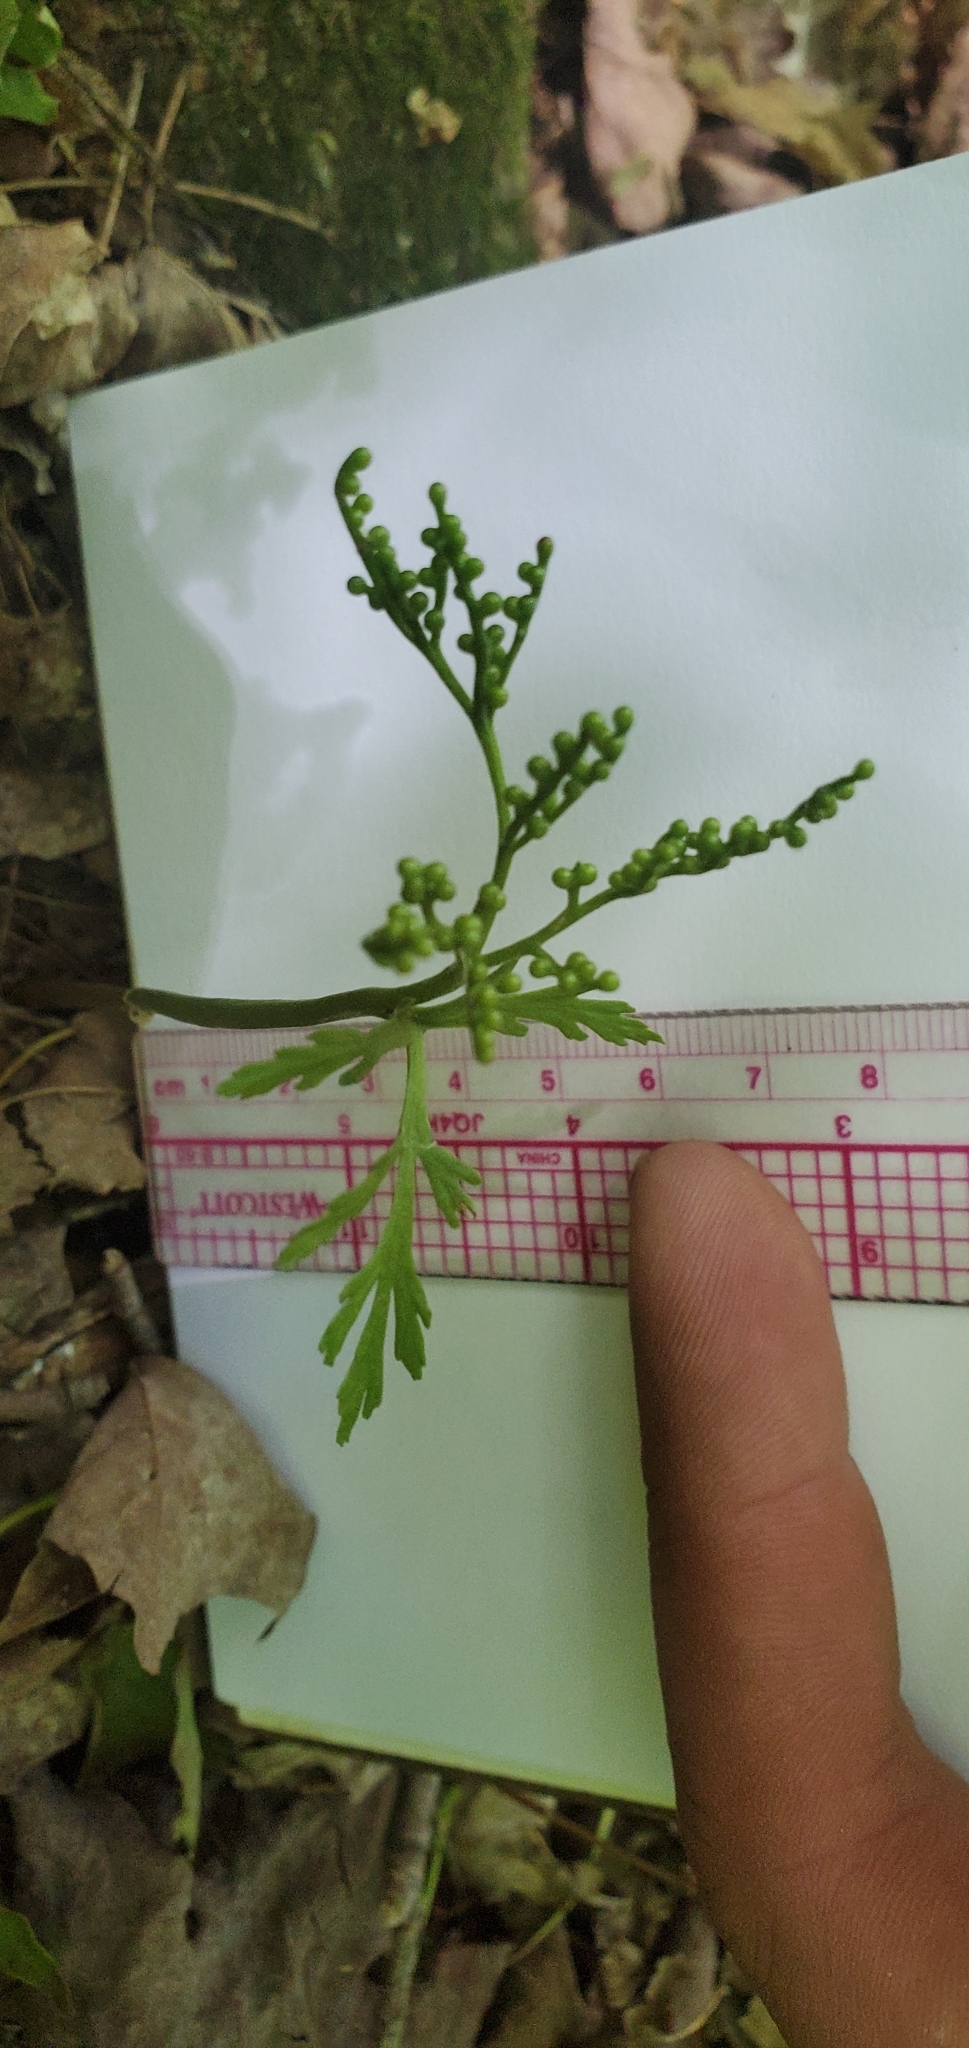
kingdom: Plantae
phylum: Tracheophyta
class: Polypodiopsida
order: Ophioglossales
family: Ophioglossaceae
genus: Botrychium
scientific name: Botrychium angustisegmentum
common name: Narrow triangle moonwort
